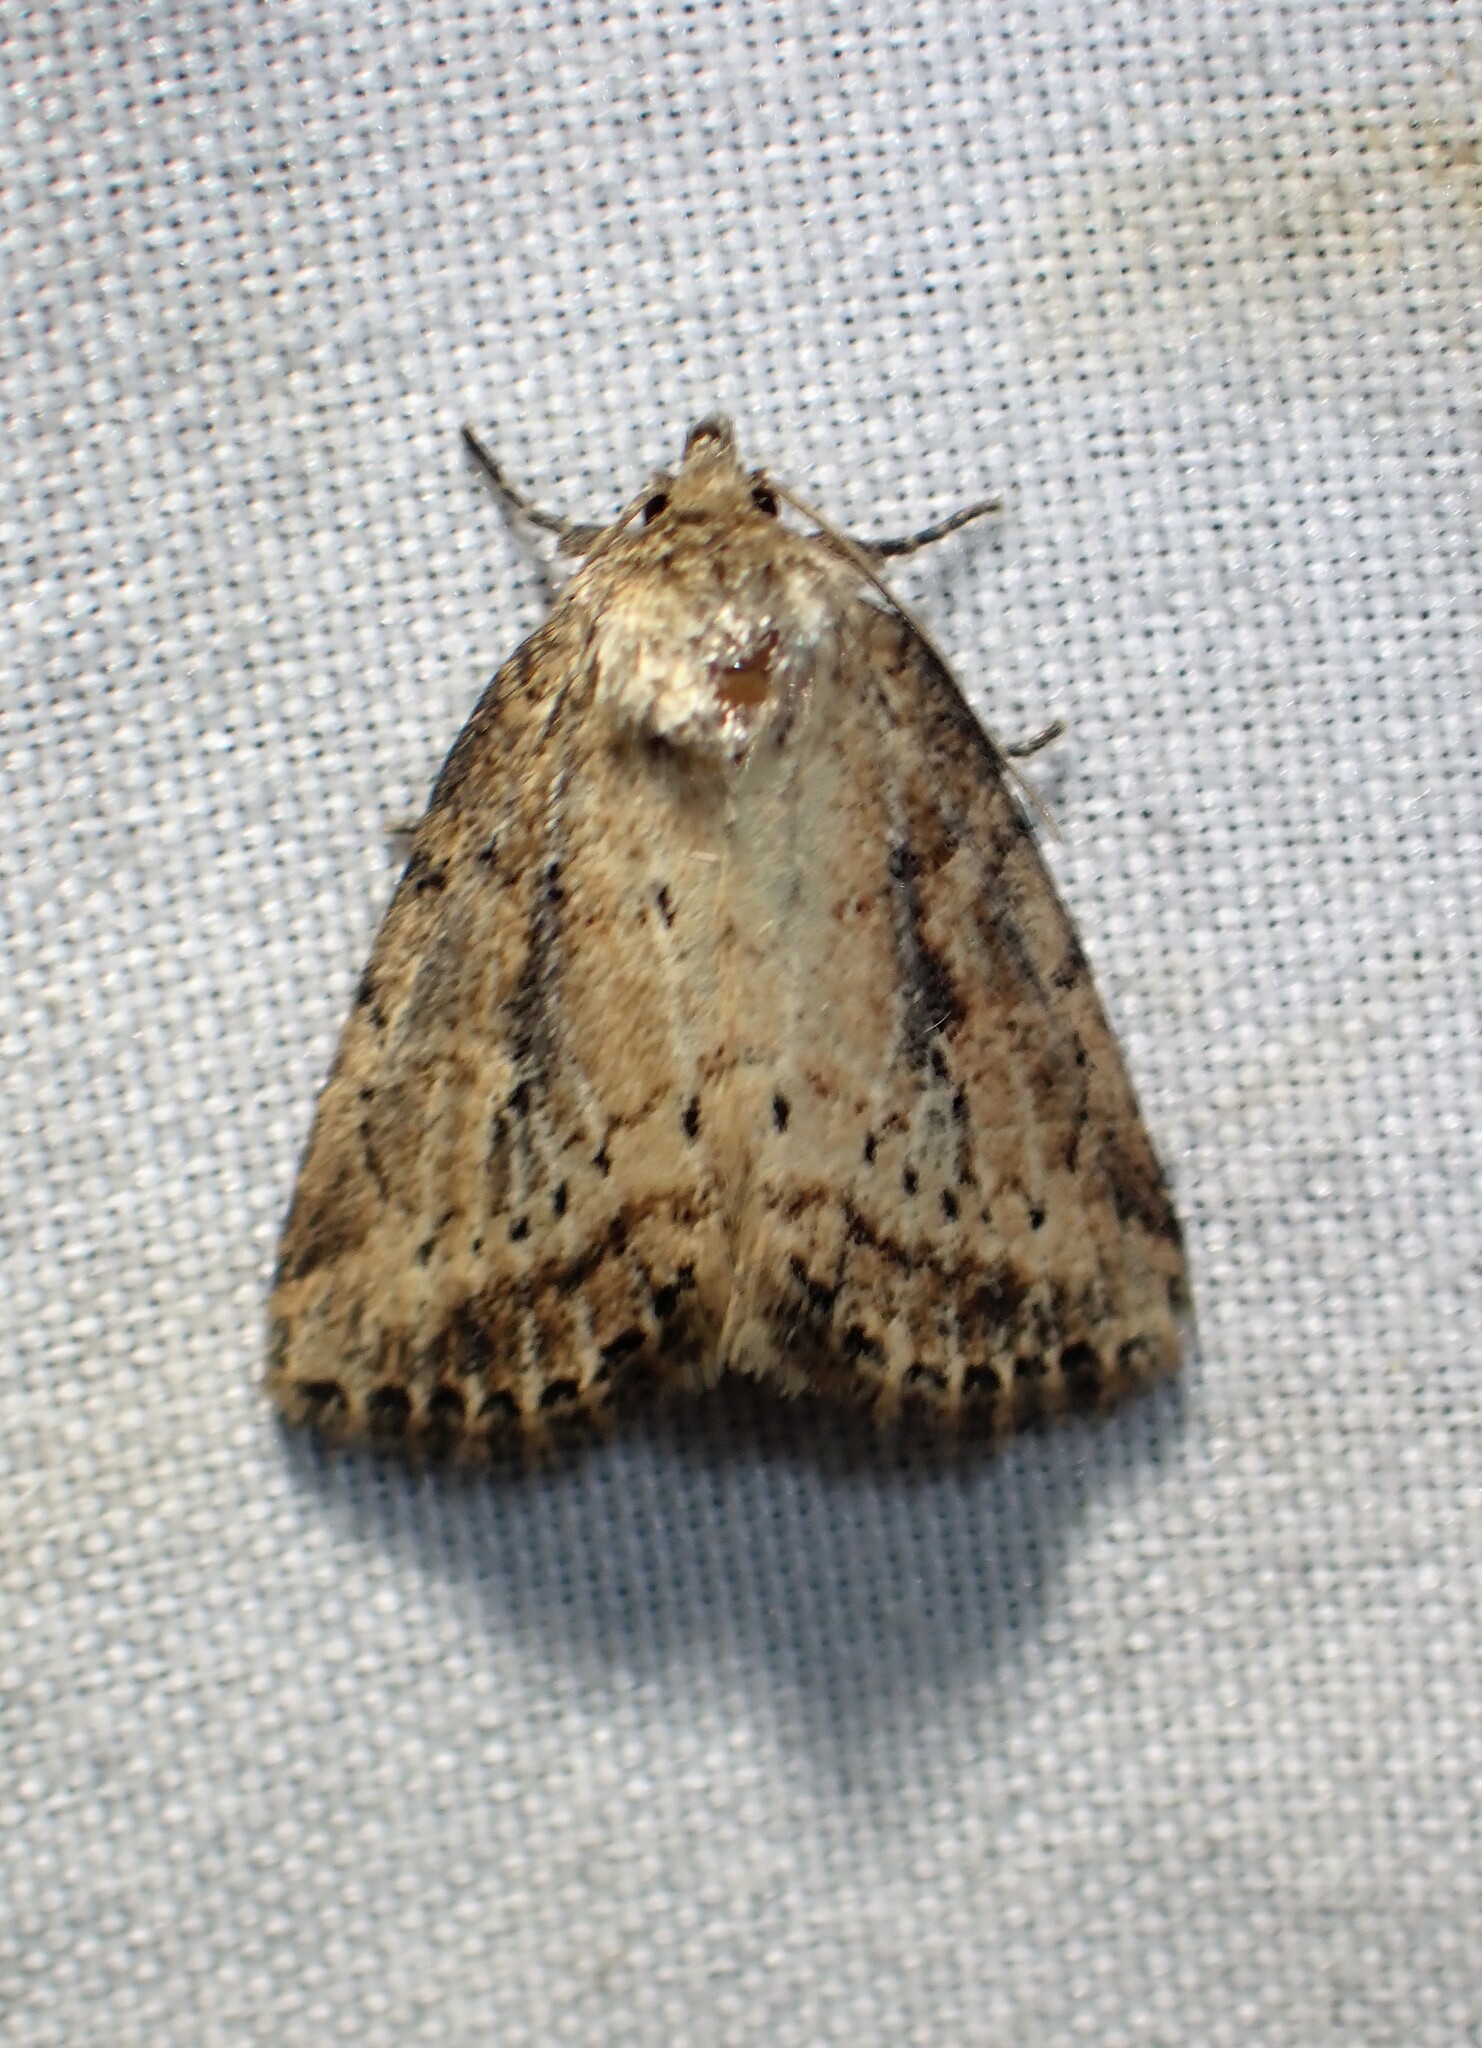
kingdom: Animalia
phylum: Arthropoda
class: Insecta
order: Lepidoptera
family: Noctuidae
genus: Photedes
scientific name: Photedes panatela
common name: Northern cordgrass borer moth
